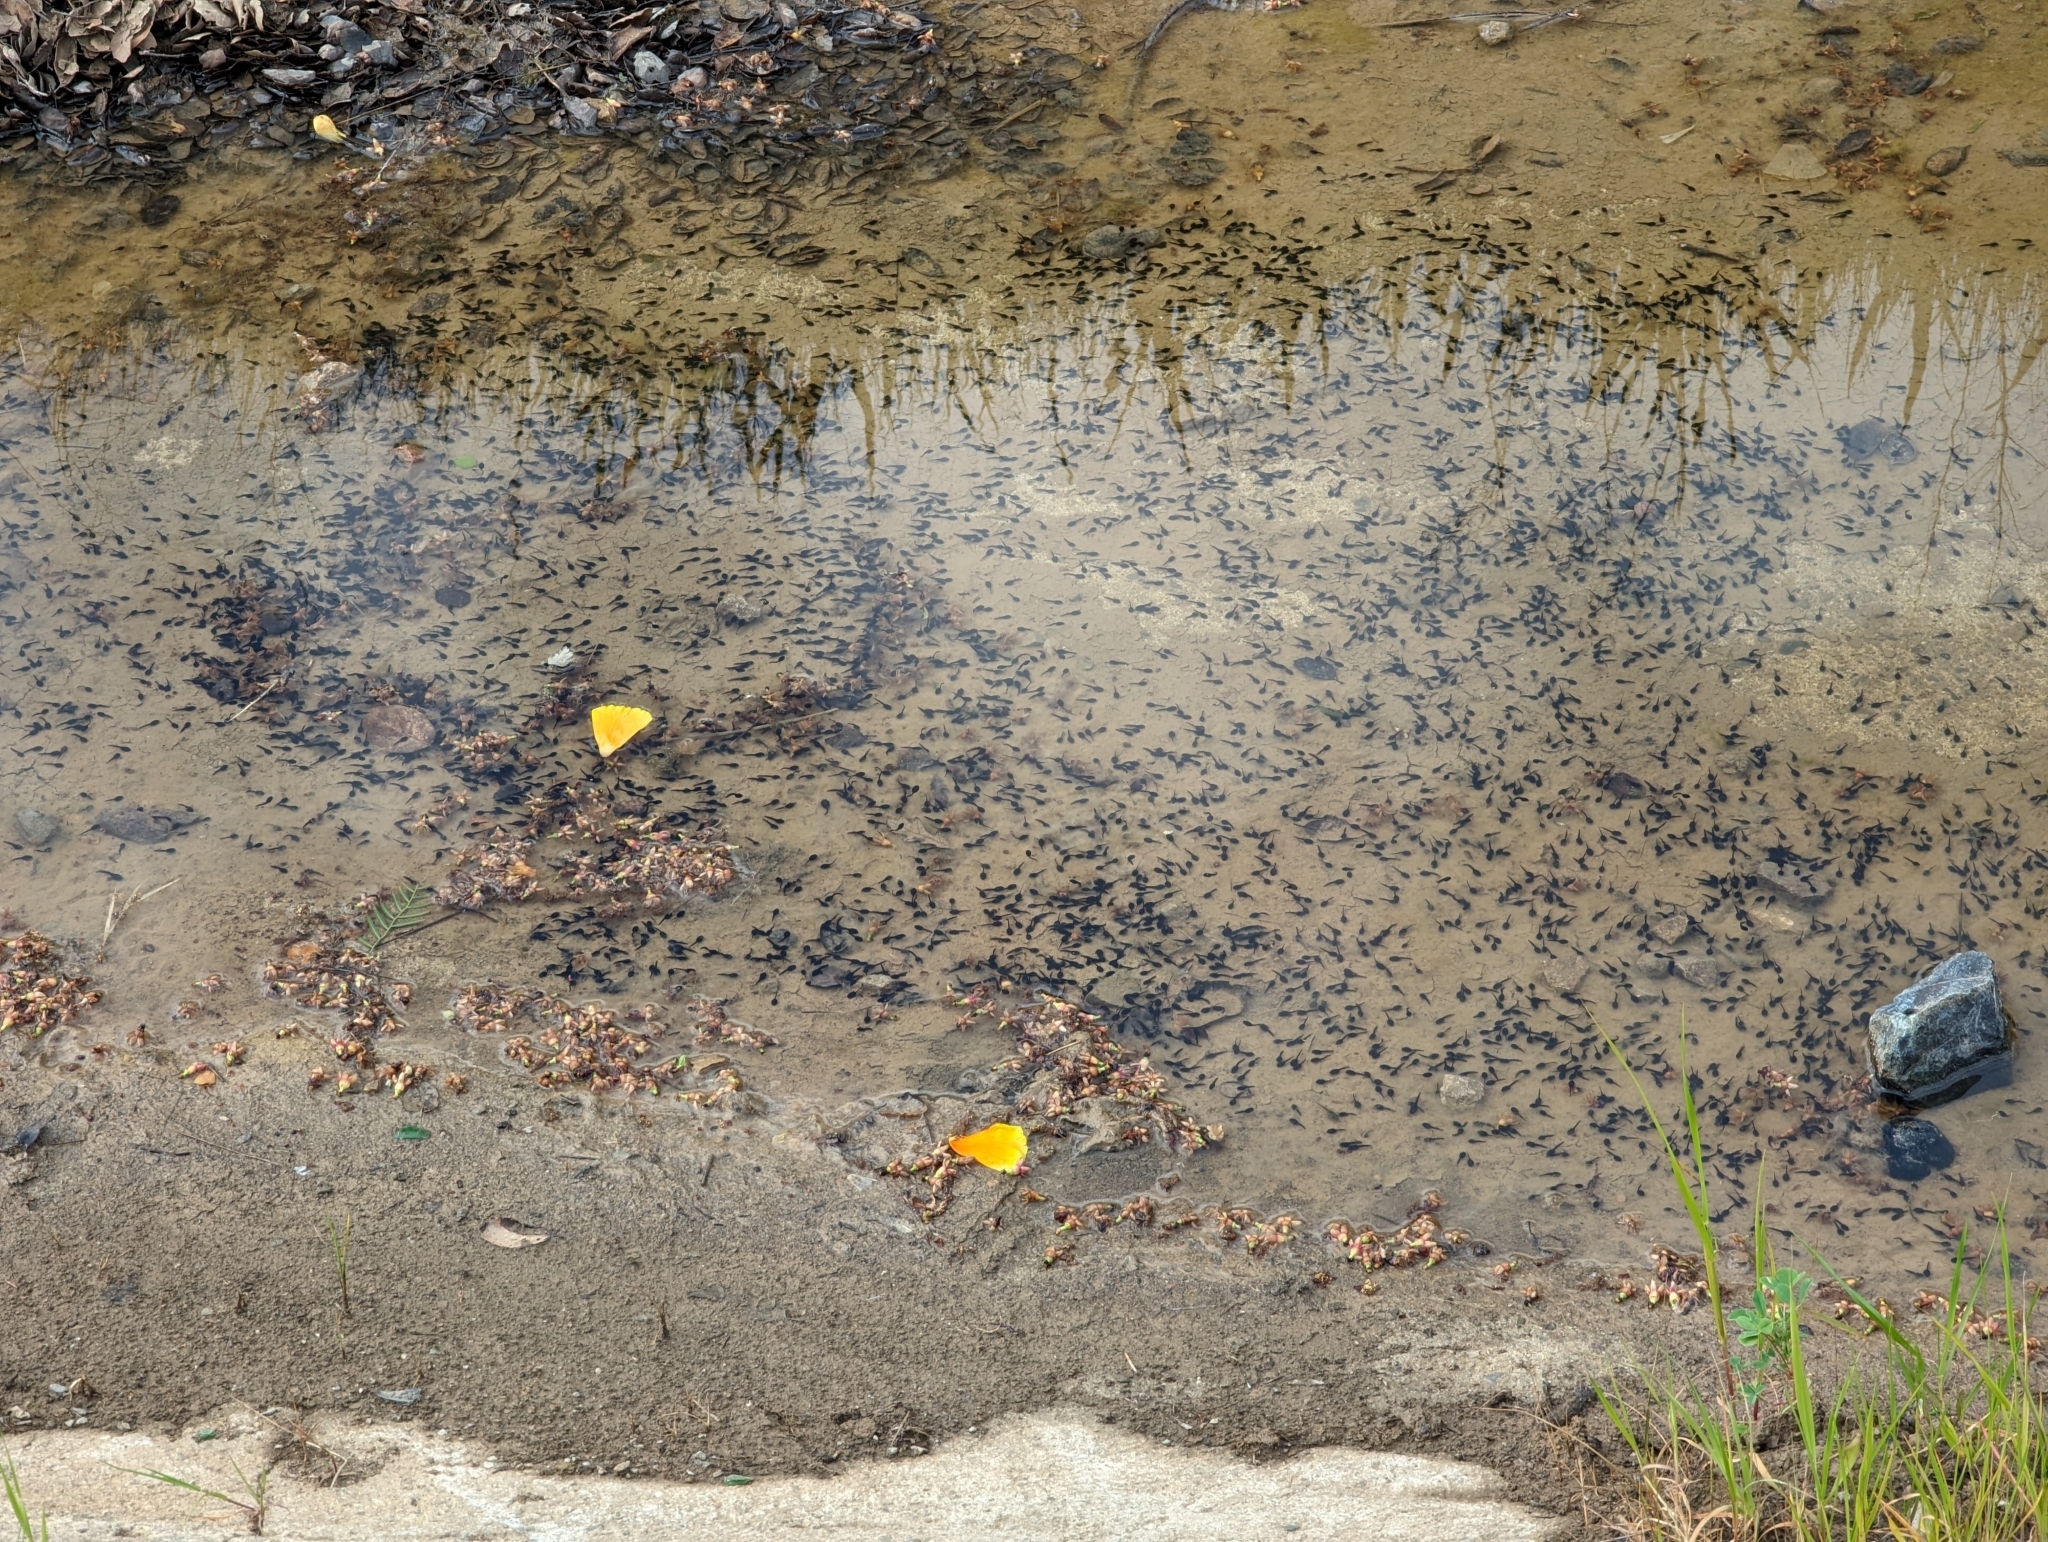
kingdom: Animalia
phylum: Chordata
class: Amphibia
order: Anura
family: Bufonidae
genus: Anaxyrus
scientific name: Anaxyrus boreas
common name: Western toad
